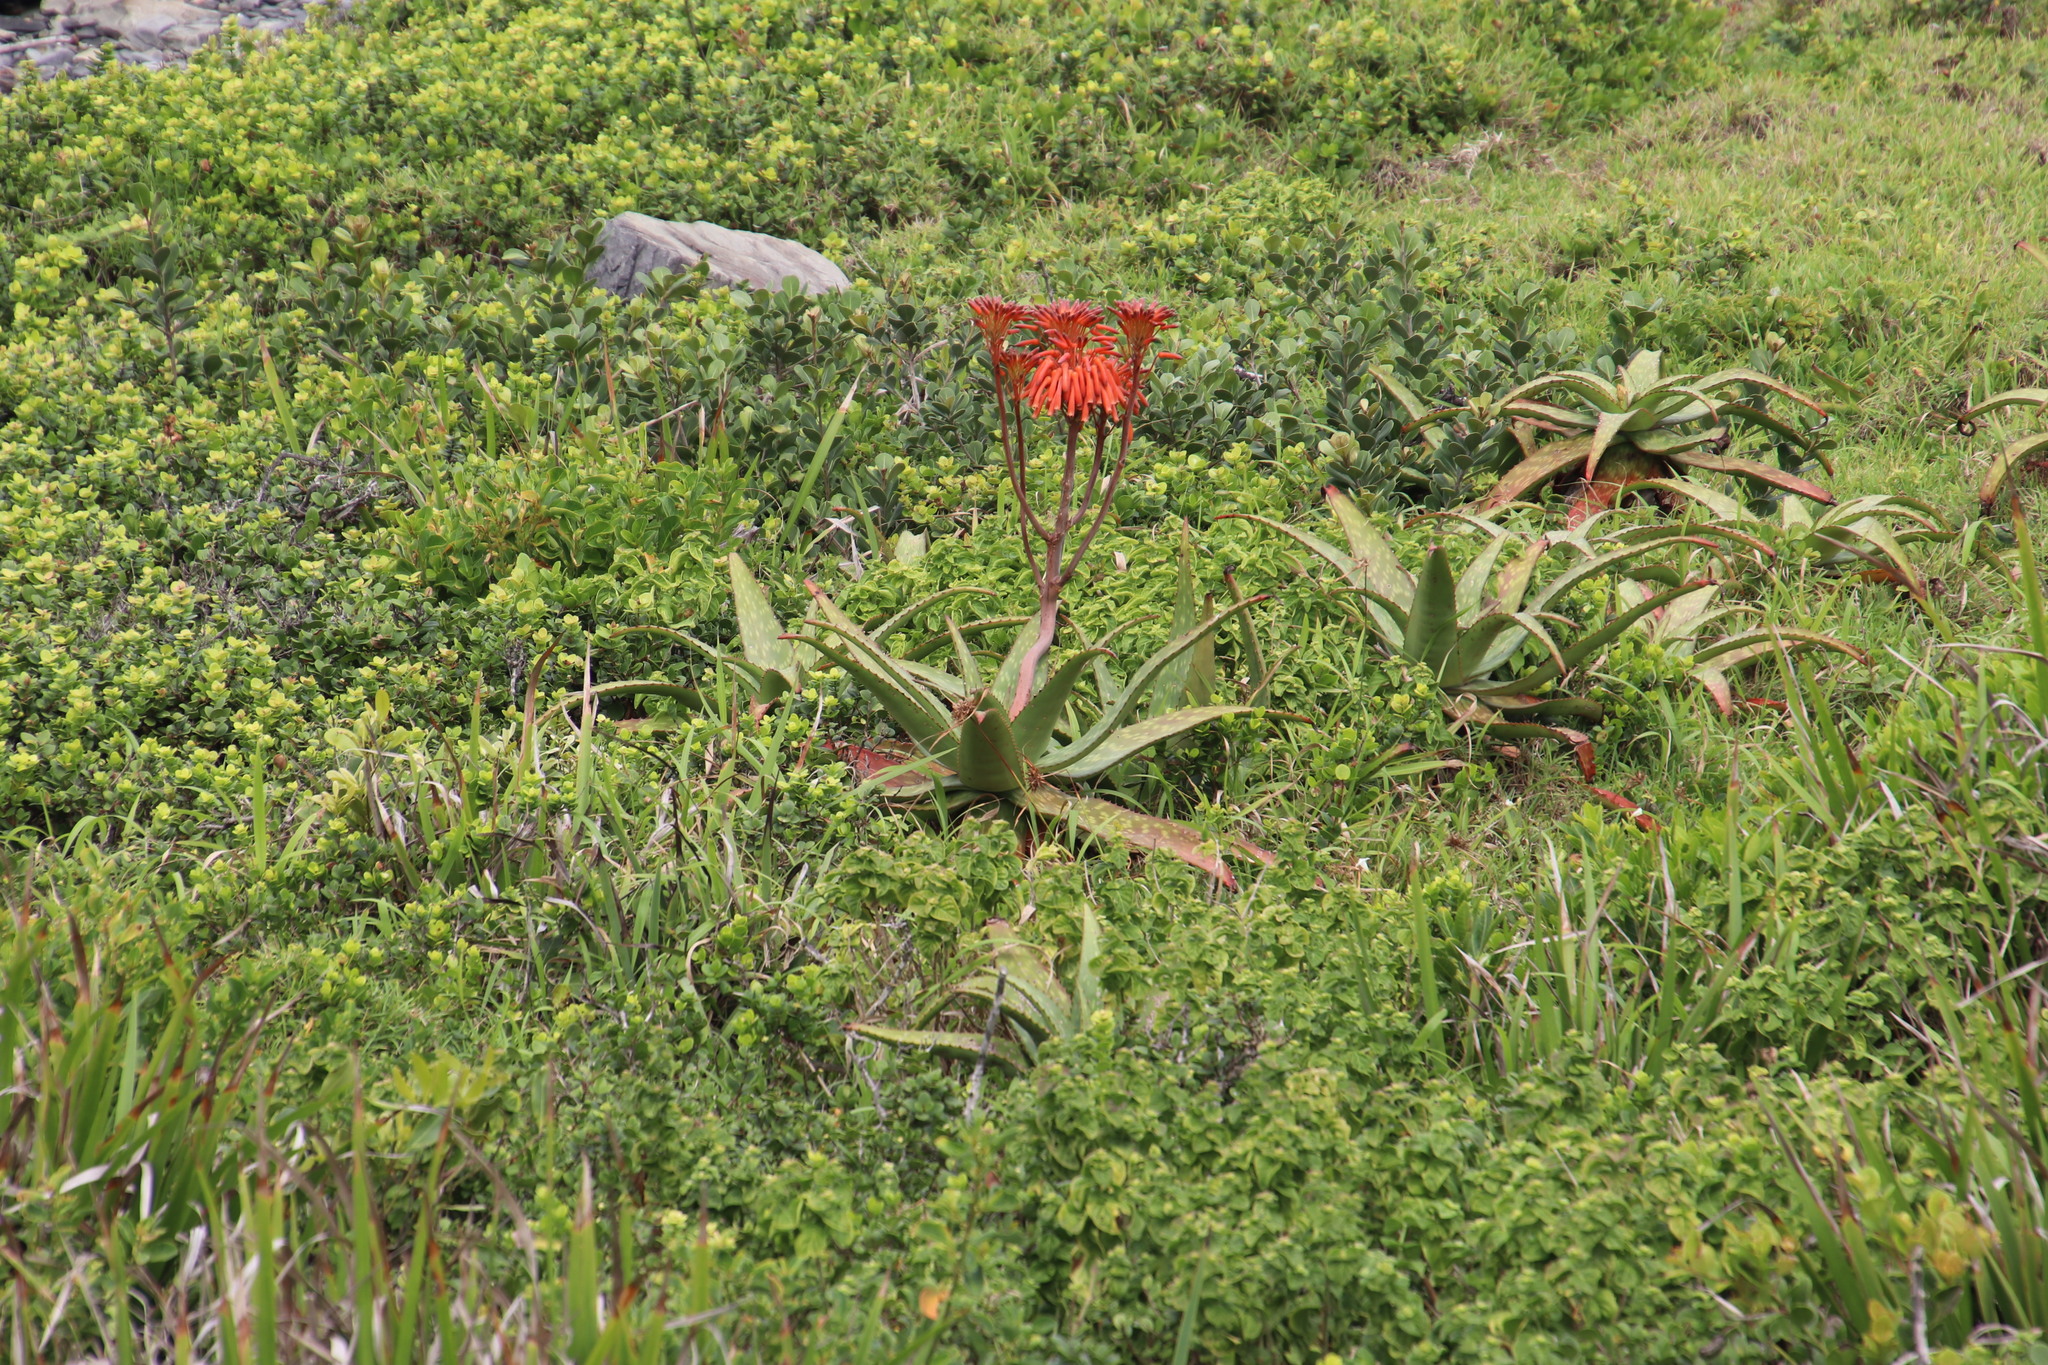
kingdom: Plantae
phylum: Tracheophyta
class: Liliopsida
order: Asparagales
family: Asphodelaceae
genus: Aloe
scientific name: Aloe maculata
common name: Broadleaf aloe
